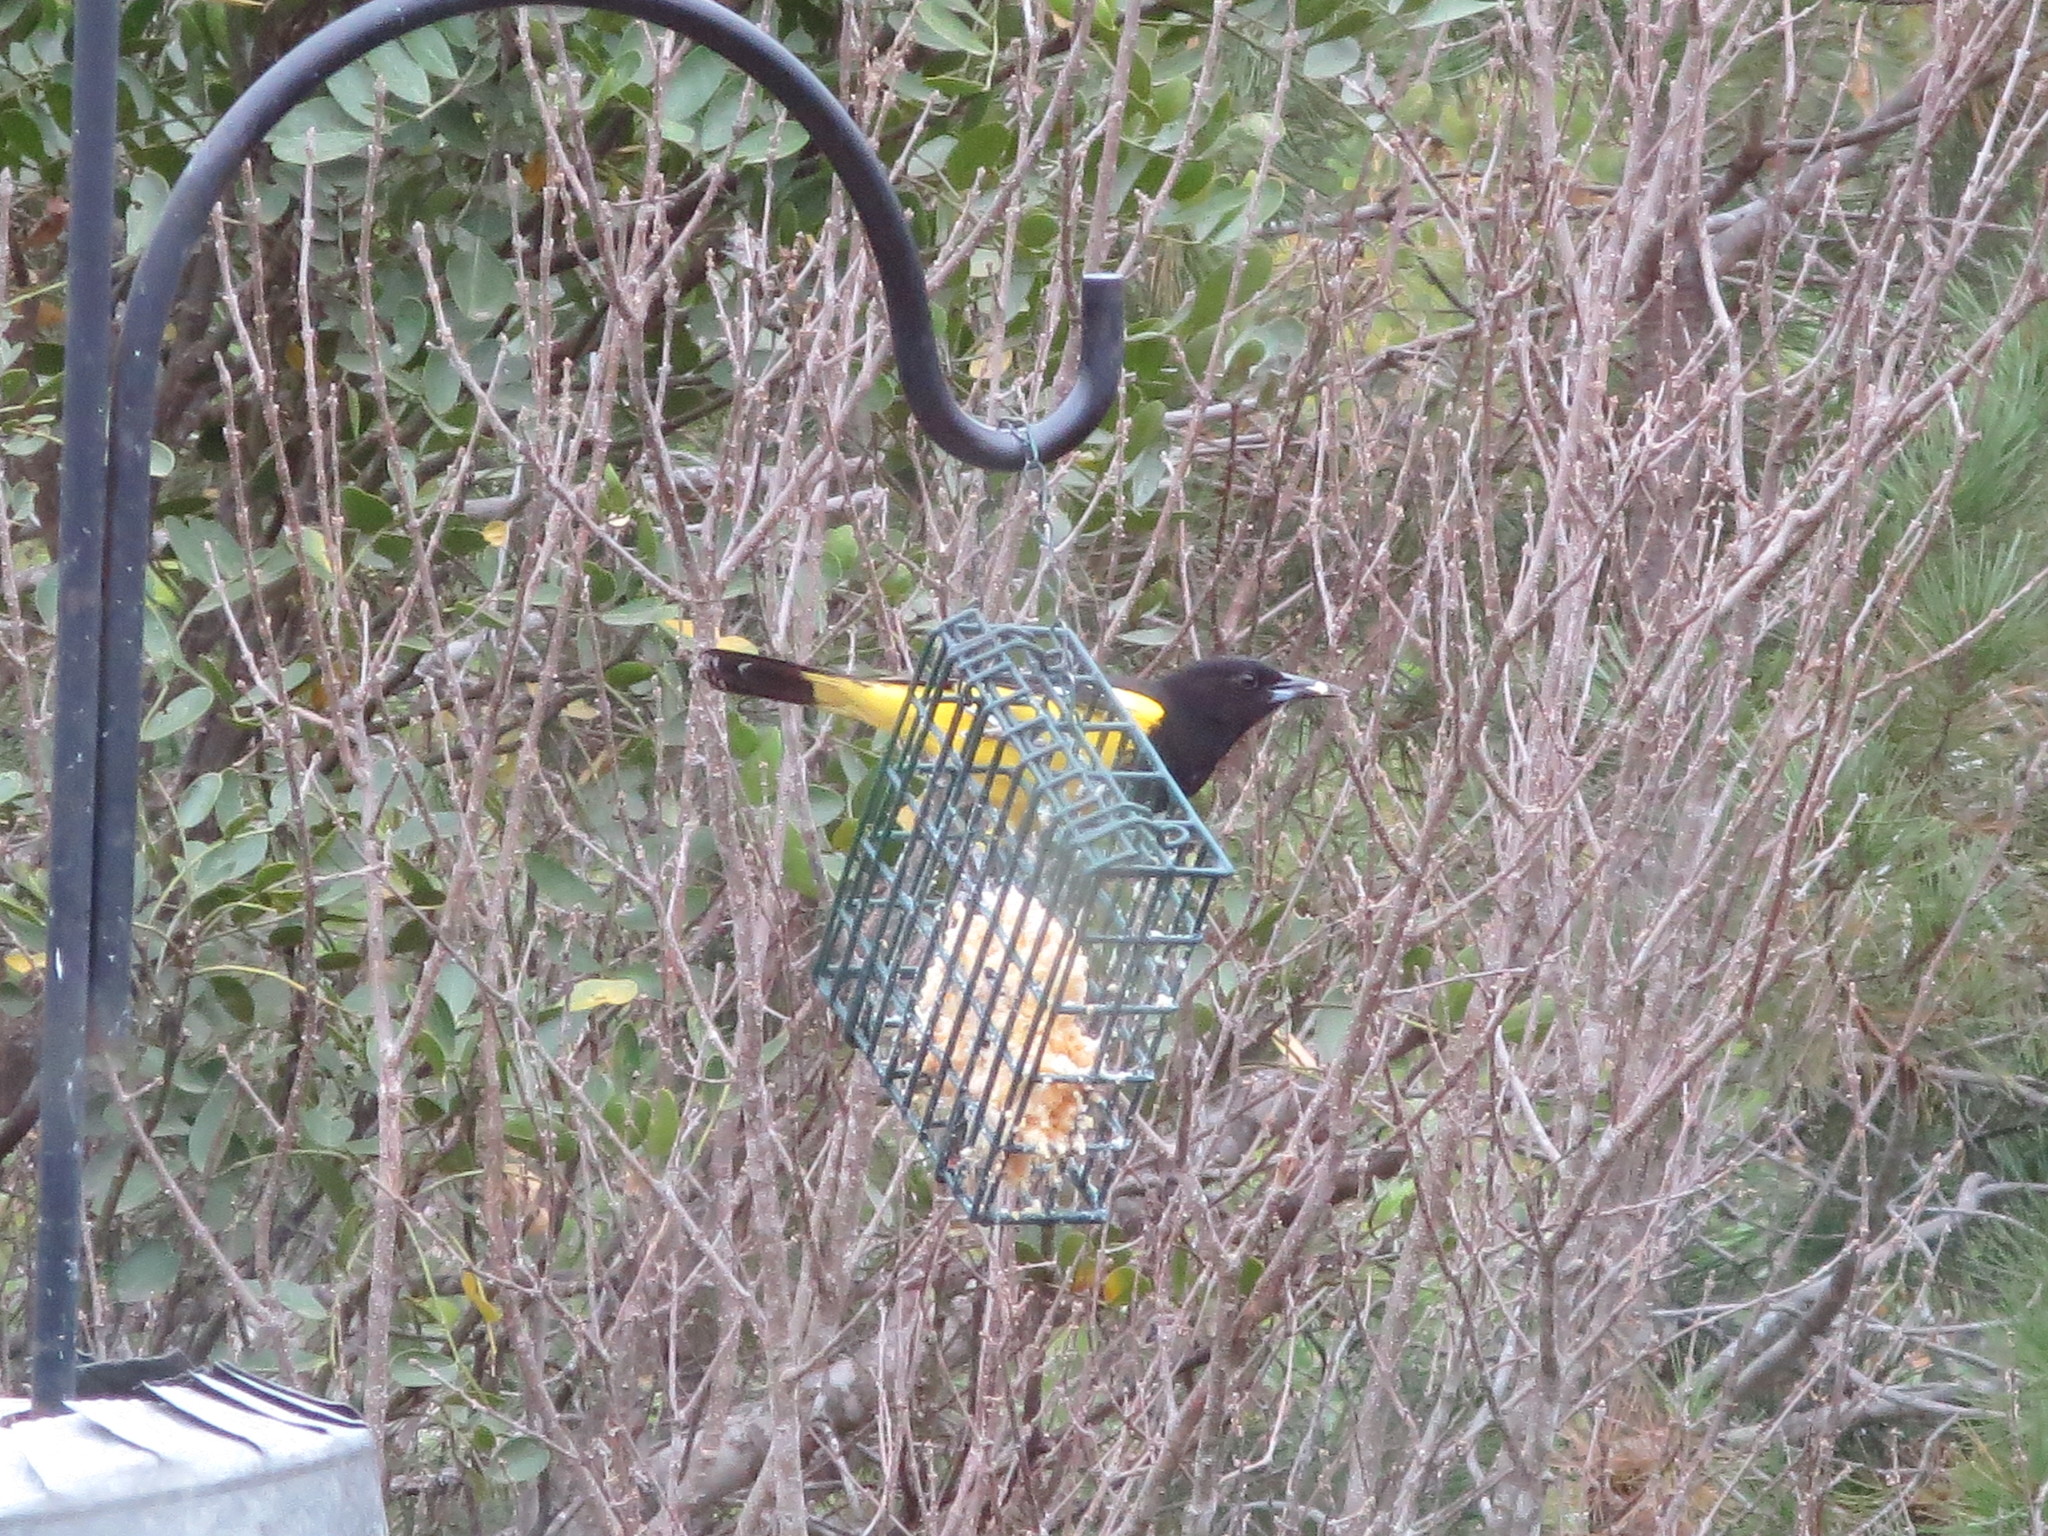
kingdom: Animalia
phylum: Chordata
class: Aves
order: Passeriformes
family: Icteridae
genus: Icterus
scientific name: Icterus parisorum
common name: Scott's oriole
